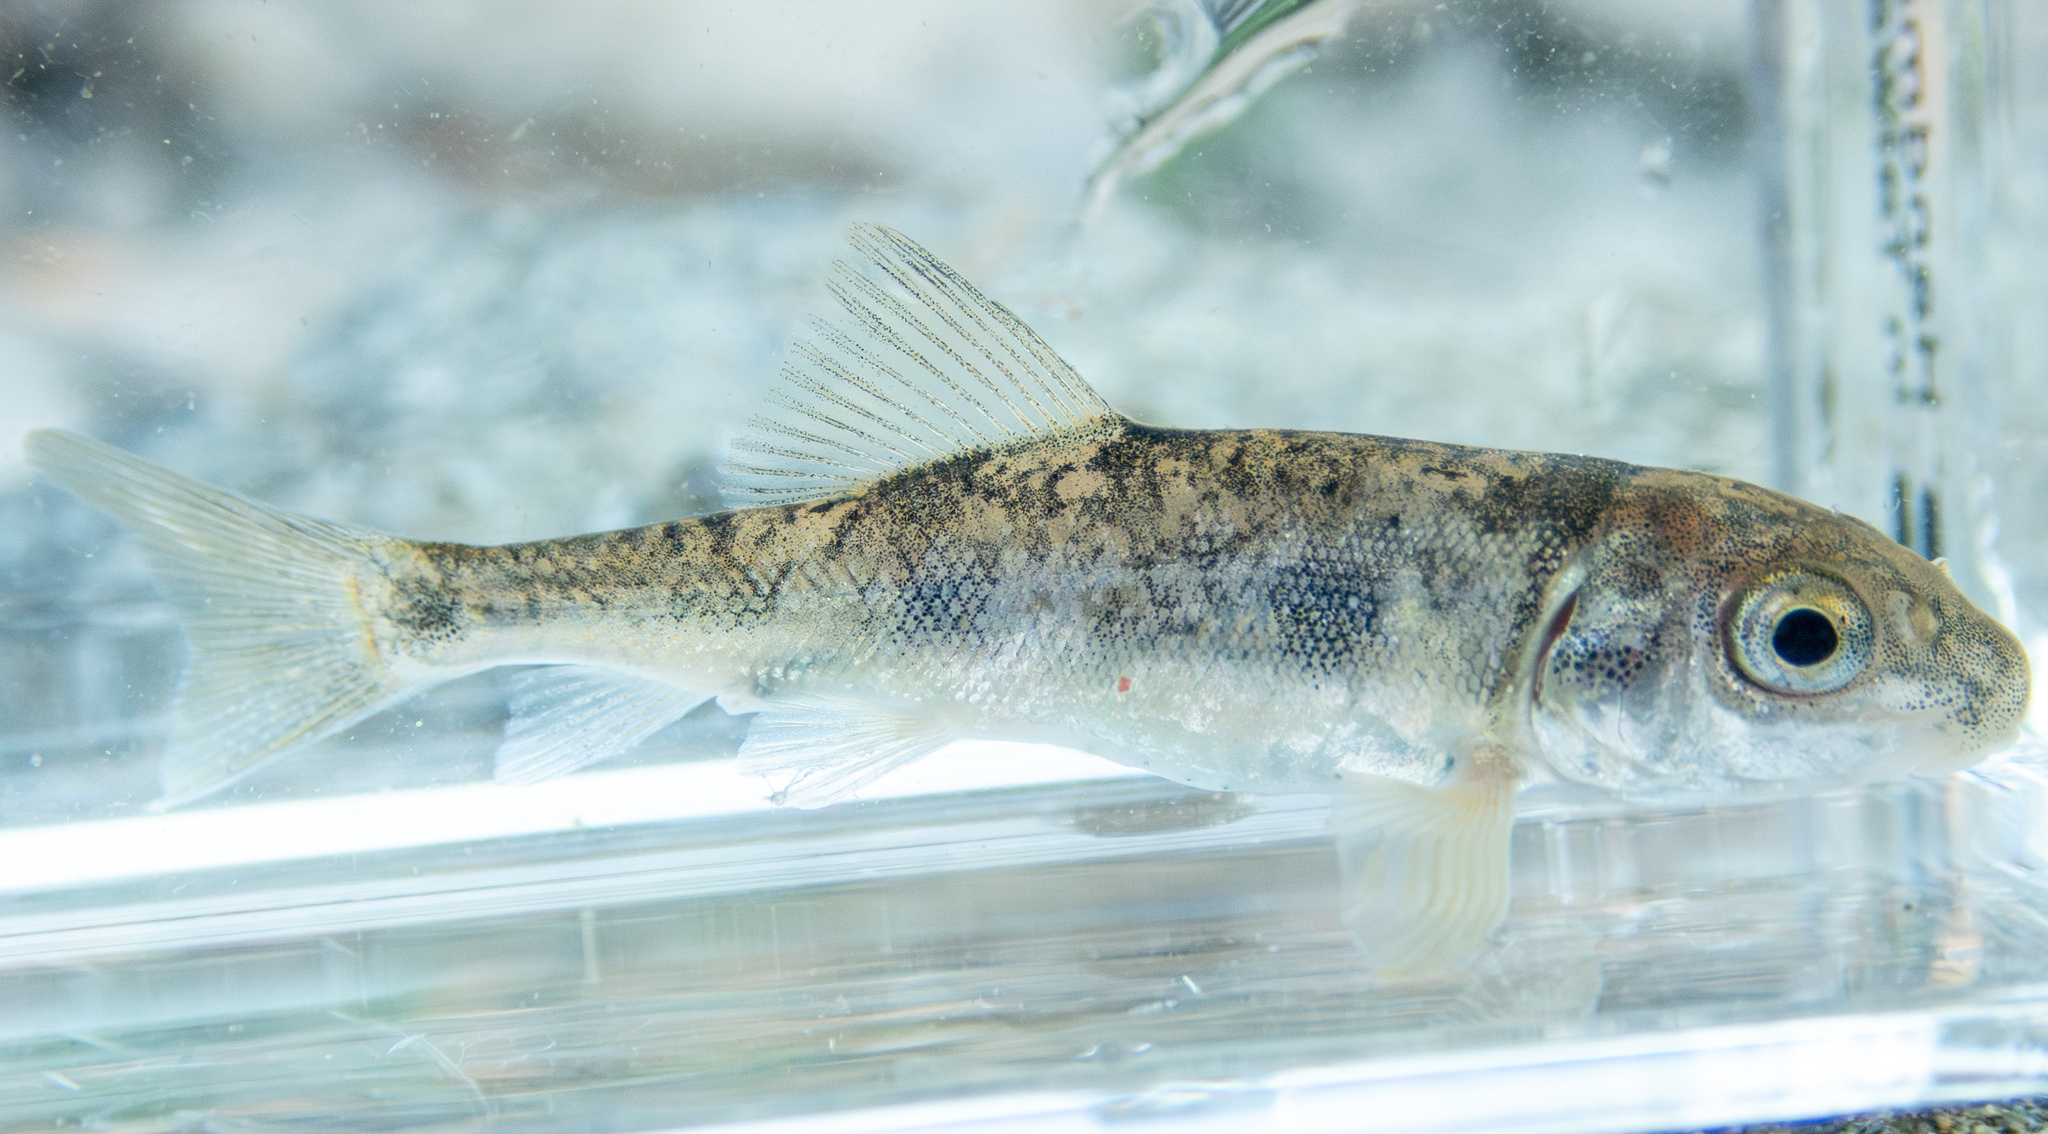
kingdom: Animalia
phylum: Chordata
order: Cypriniformes
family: Catostomidae
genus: Catostomus
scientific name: Catostomus occidentalis
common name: Goose lake sucker
